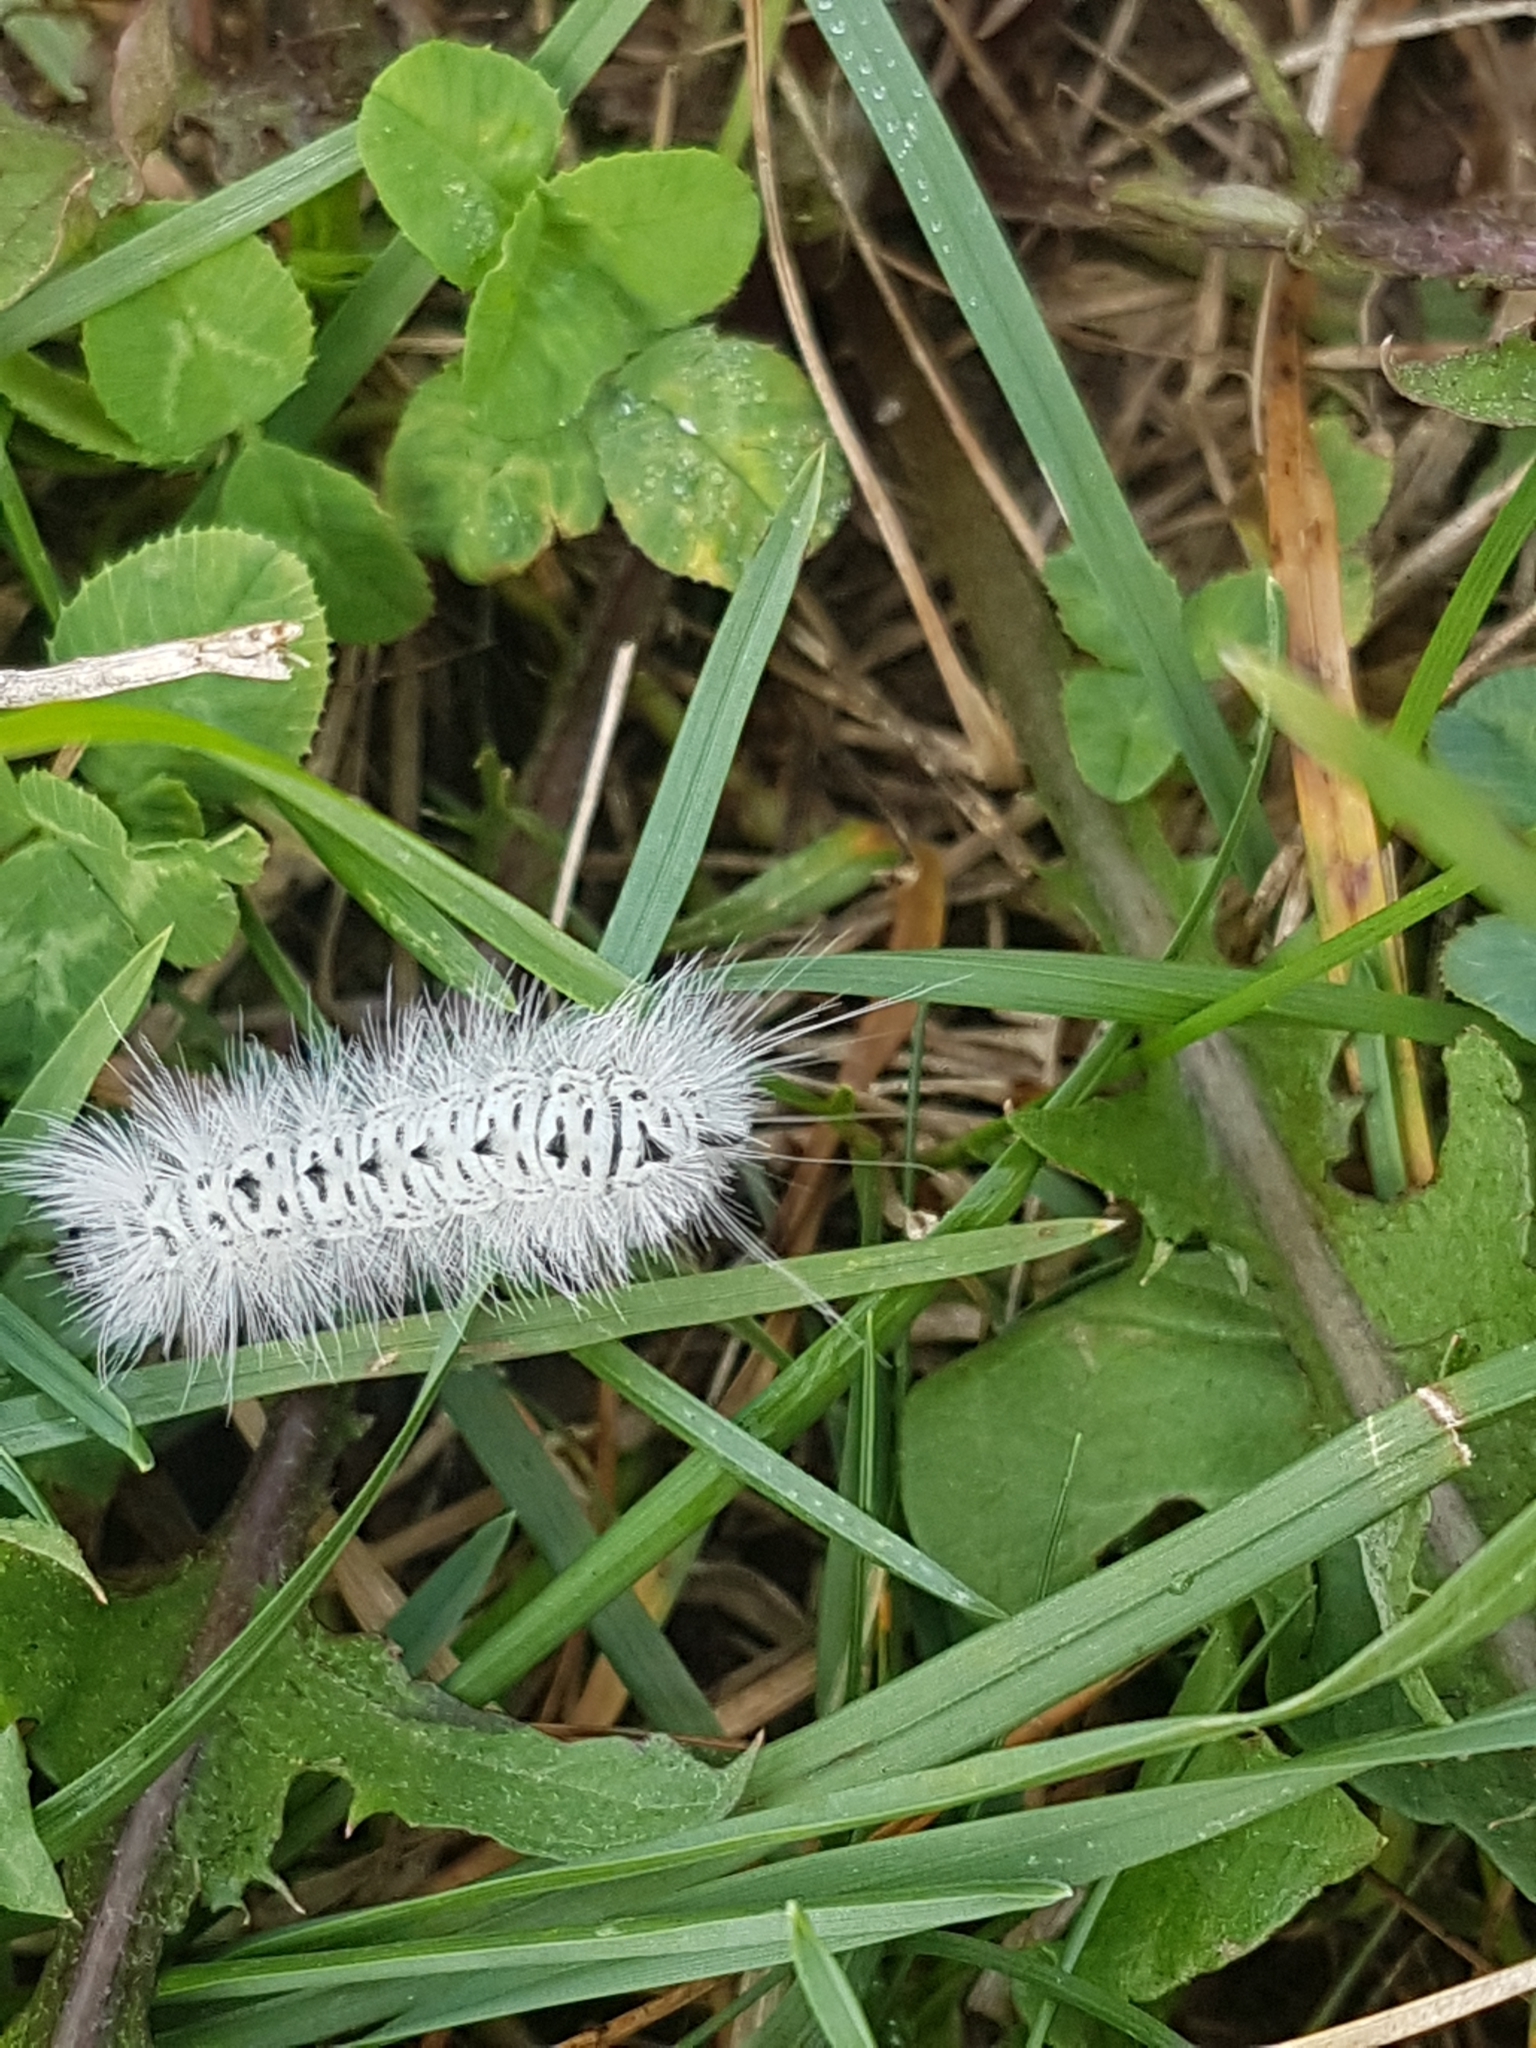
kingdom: Animalia
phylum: Arthropoda
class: Insecta
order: Lepidoptera
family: Erebidae
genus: Lophocampa
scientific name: Lophocampa caryae
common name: Hickory tussock moth
